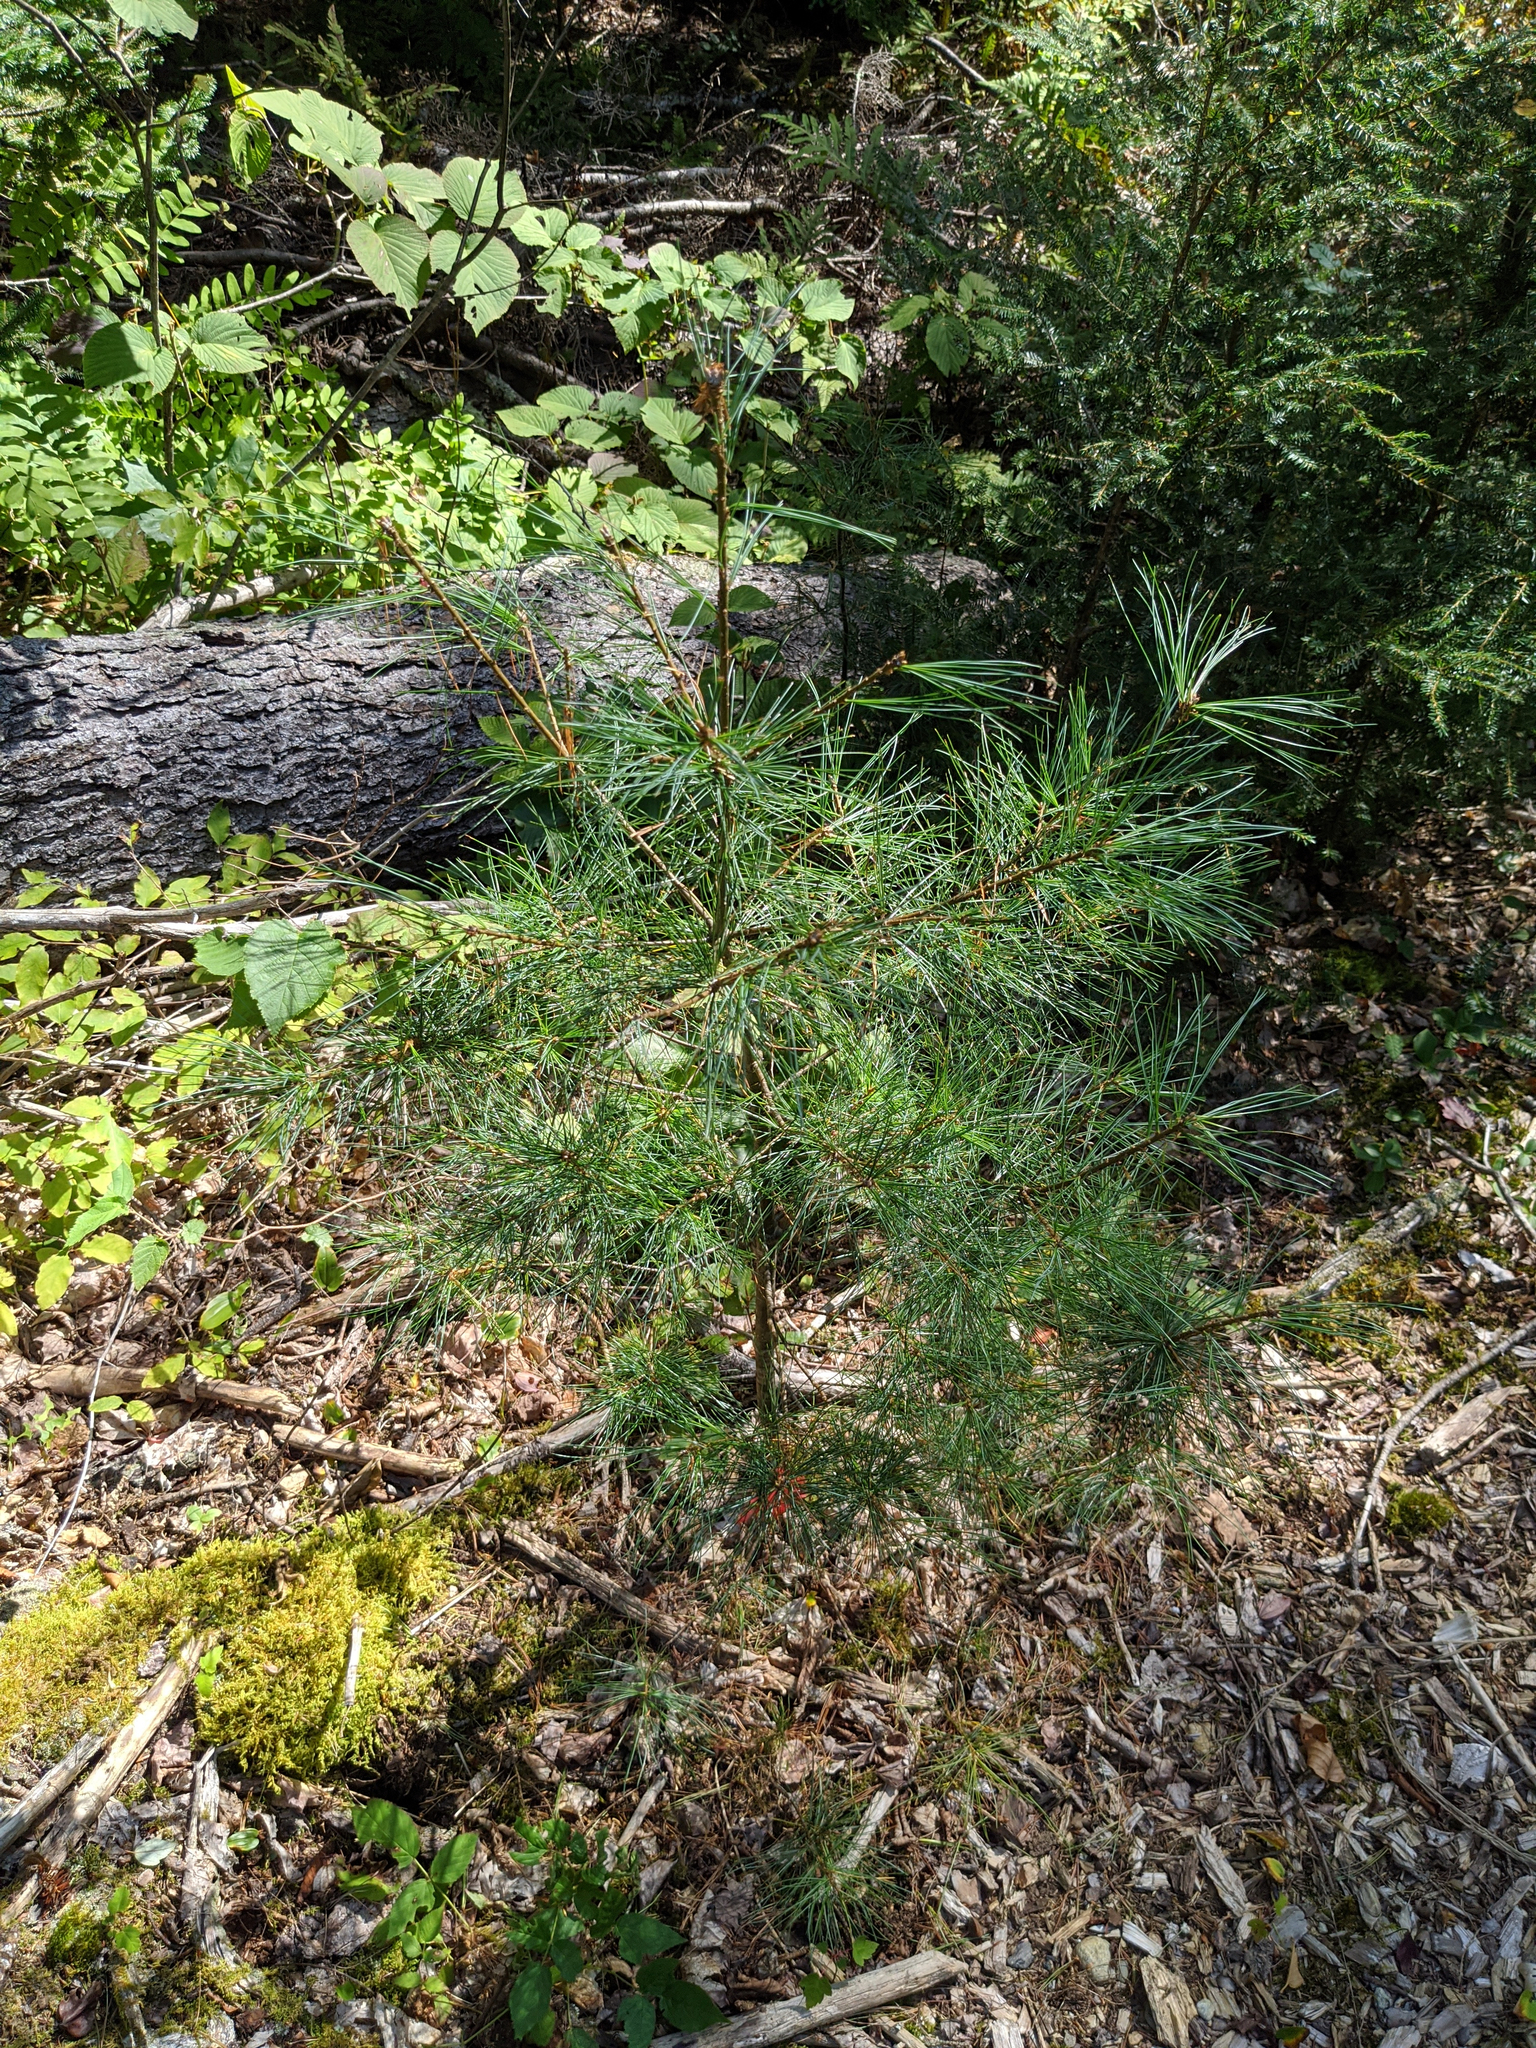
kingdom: Plantae
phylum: Tracheophyta
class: Pinopsida
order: Pinales
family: Pinaceae
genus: Pinus
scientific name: Pinus strobus
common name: Weymouth pine
